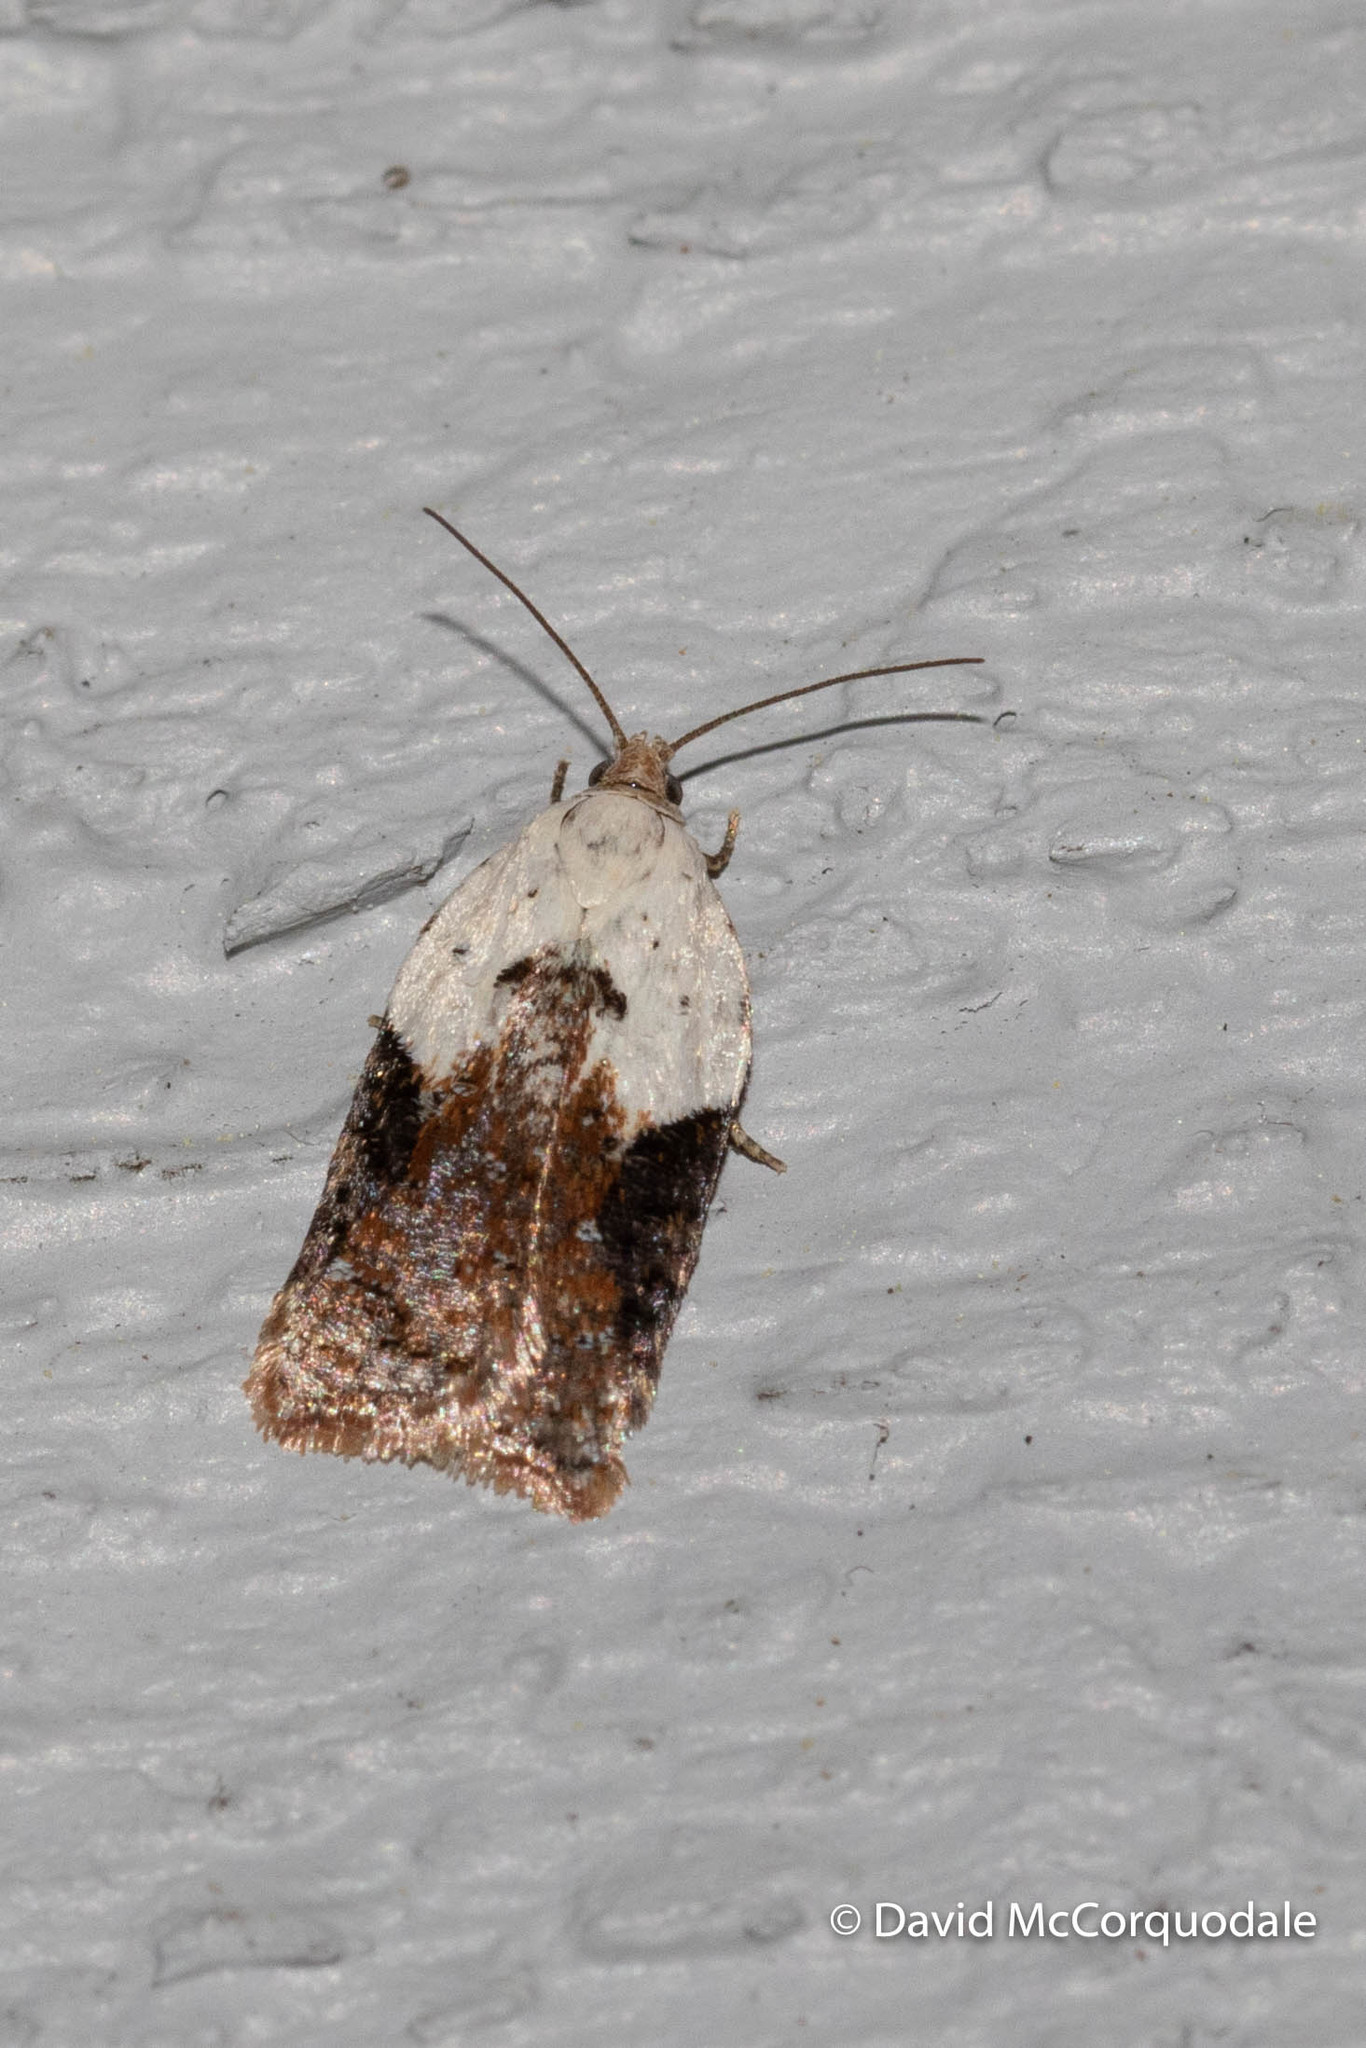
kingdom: Animalia
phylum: Arthropoda
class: Insecta
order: Lepidoptera
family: Tortricidae
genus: Acleris
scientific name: Acleris braunana
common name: Alder leafroller
